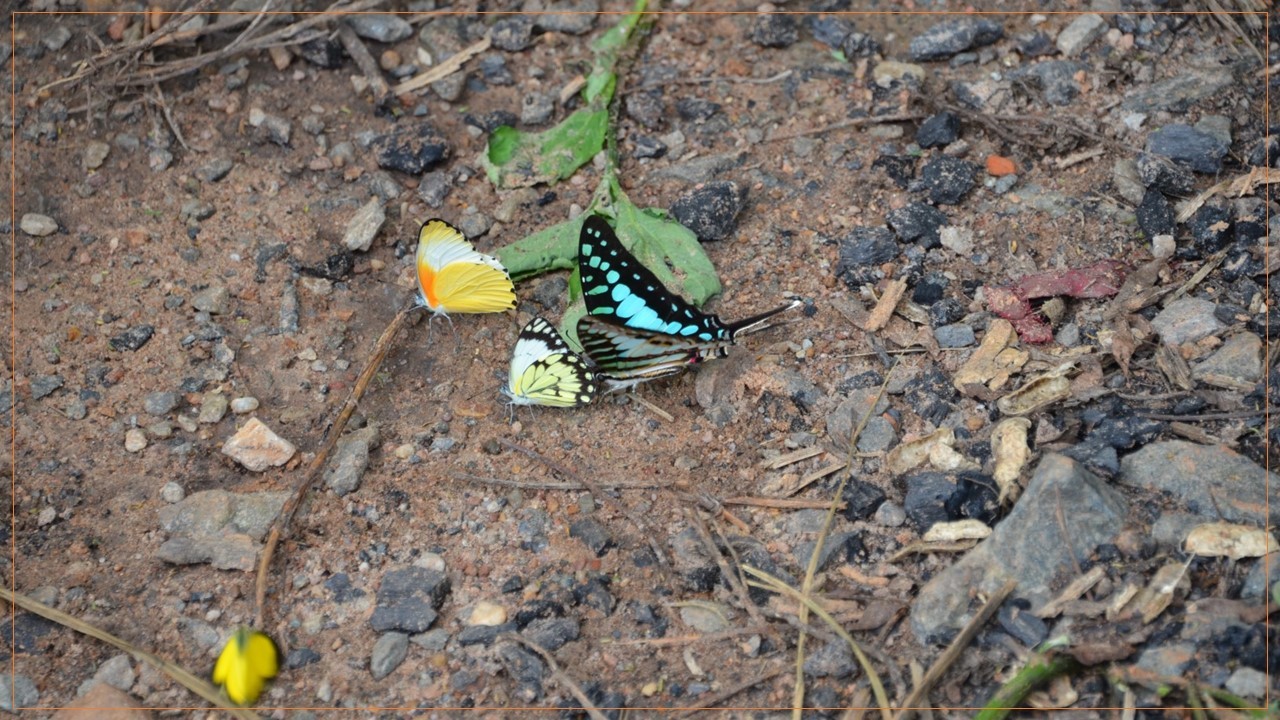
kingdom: Animalia
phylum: Arthropoda
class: Insecta
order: Lepidoptera
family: Papilionidae
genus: Graphium
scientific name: Graphium policenes
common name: Common swordtail
